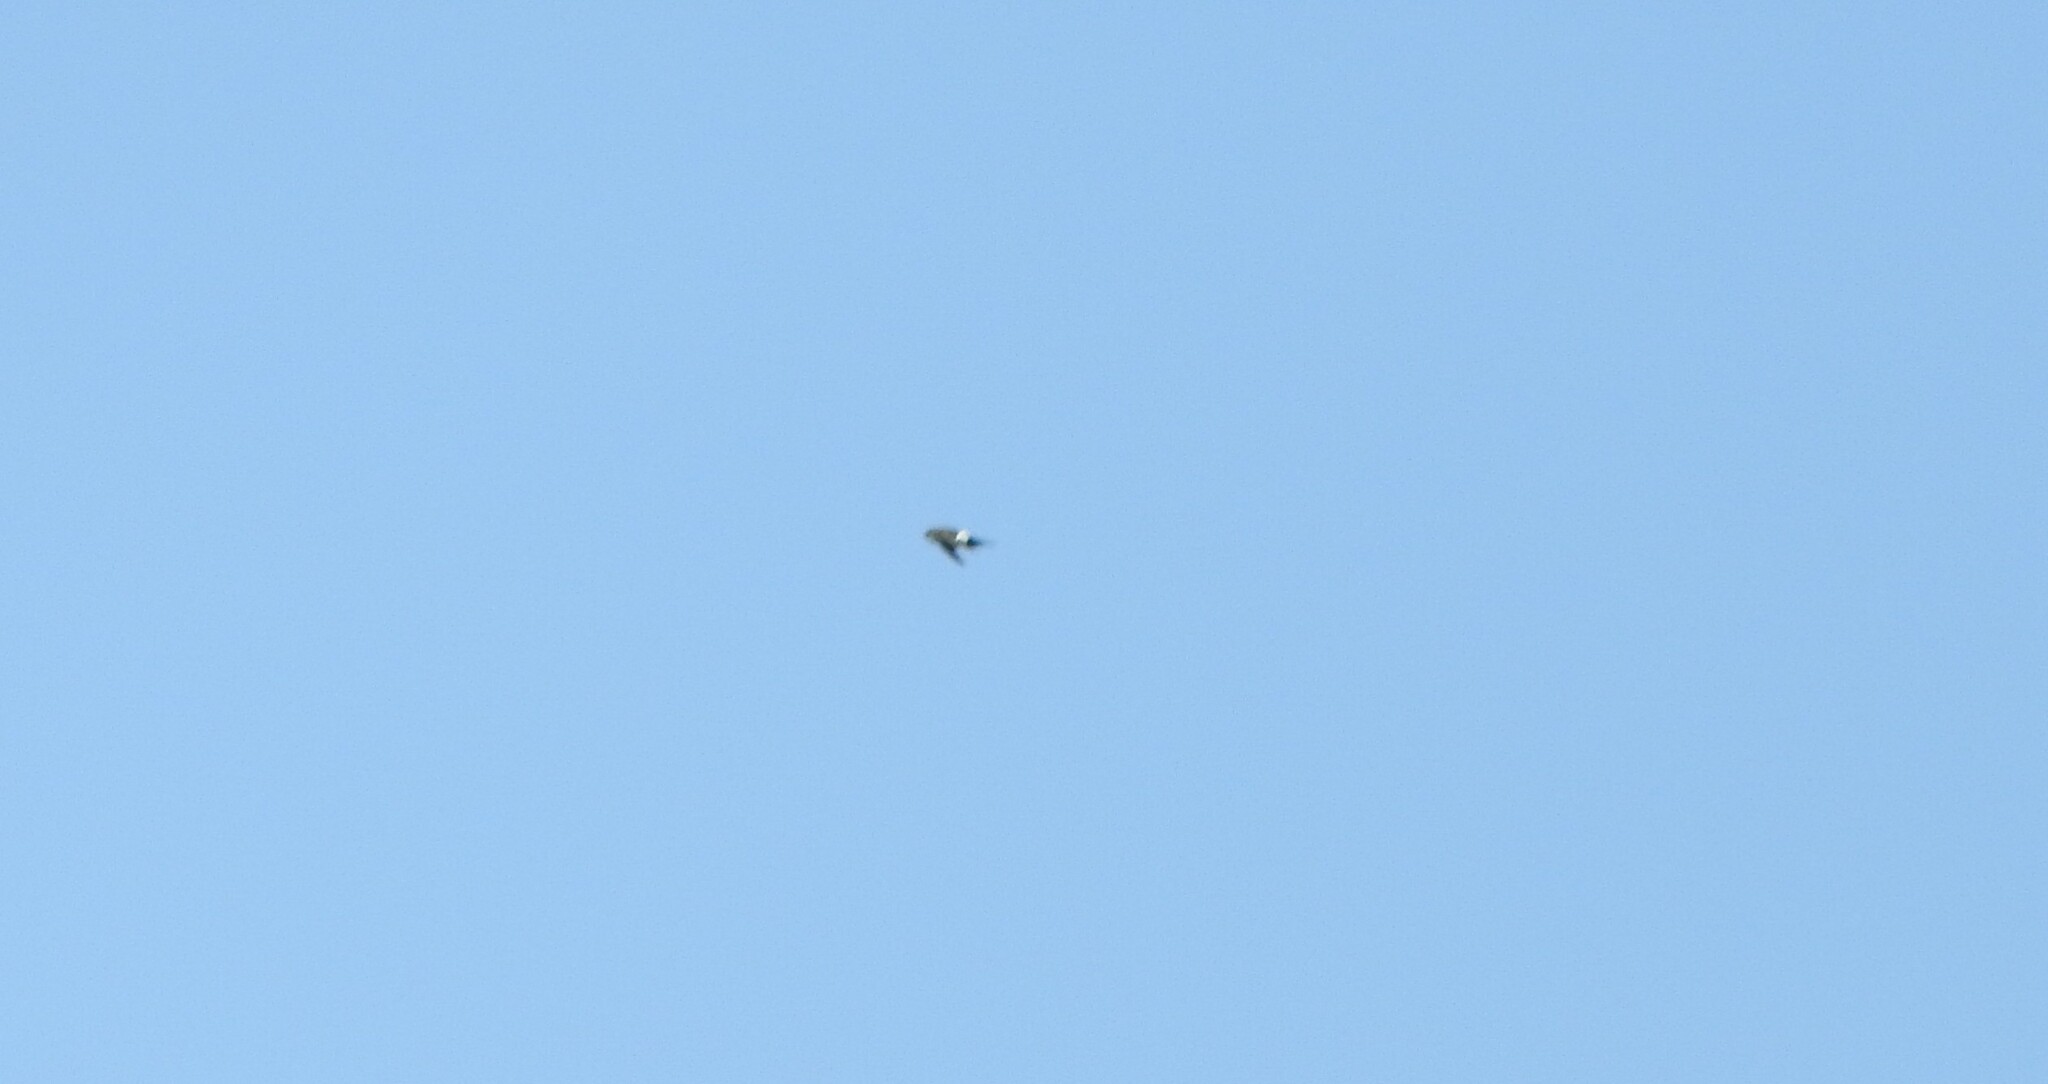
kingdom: Animalia
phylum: Chordata
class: Aves
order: Apodiformes
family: Apodidae
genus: Aeronautes
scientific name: Aeronautes saxatalis
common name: White-throated swift
